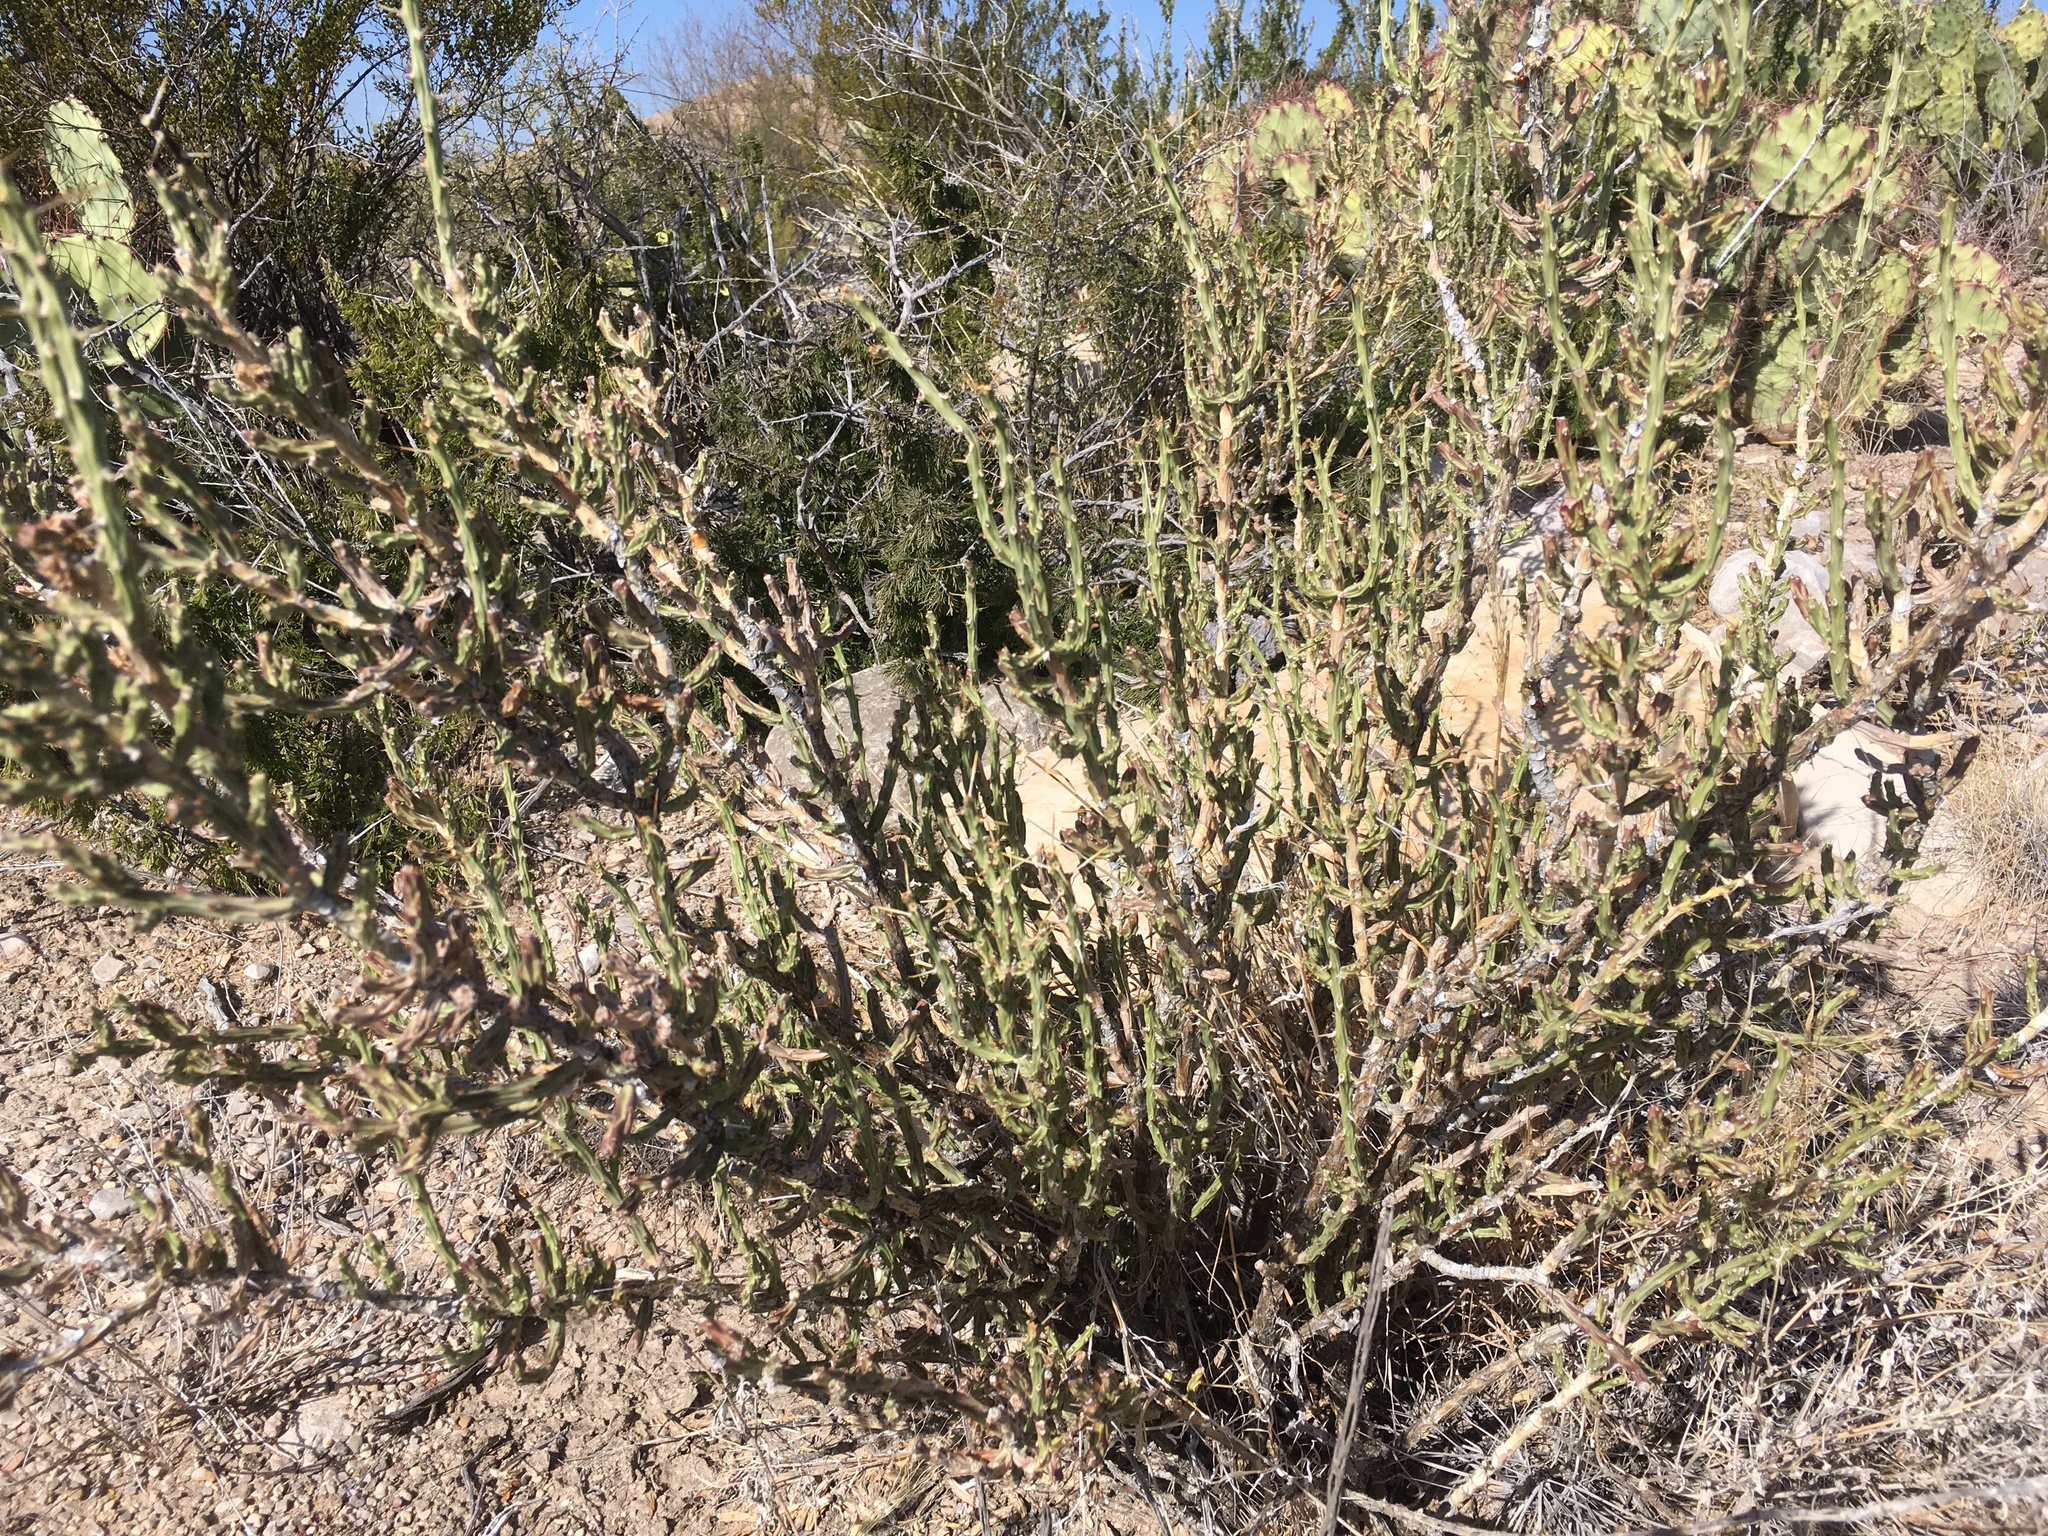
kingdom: Plantae
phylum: Tracheophyta
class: Magnoliopsida
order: Caryophyllales
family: Cactaceae
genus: Cylindropuntia
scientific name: Cylindropuntia leptocaulis
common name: Christmas cactus
